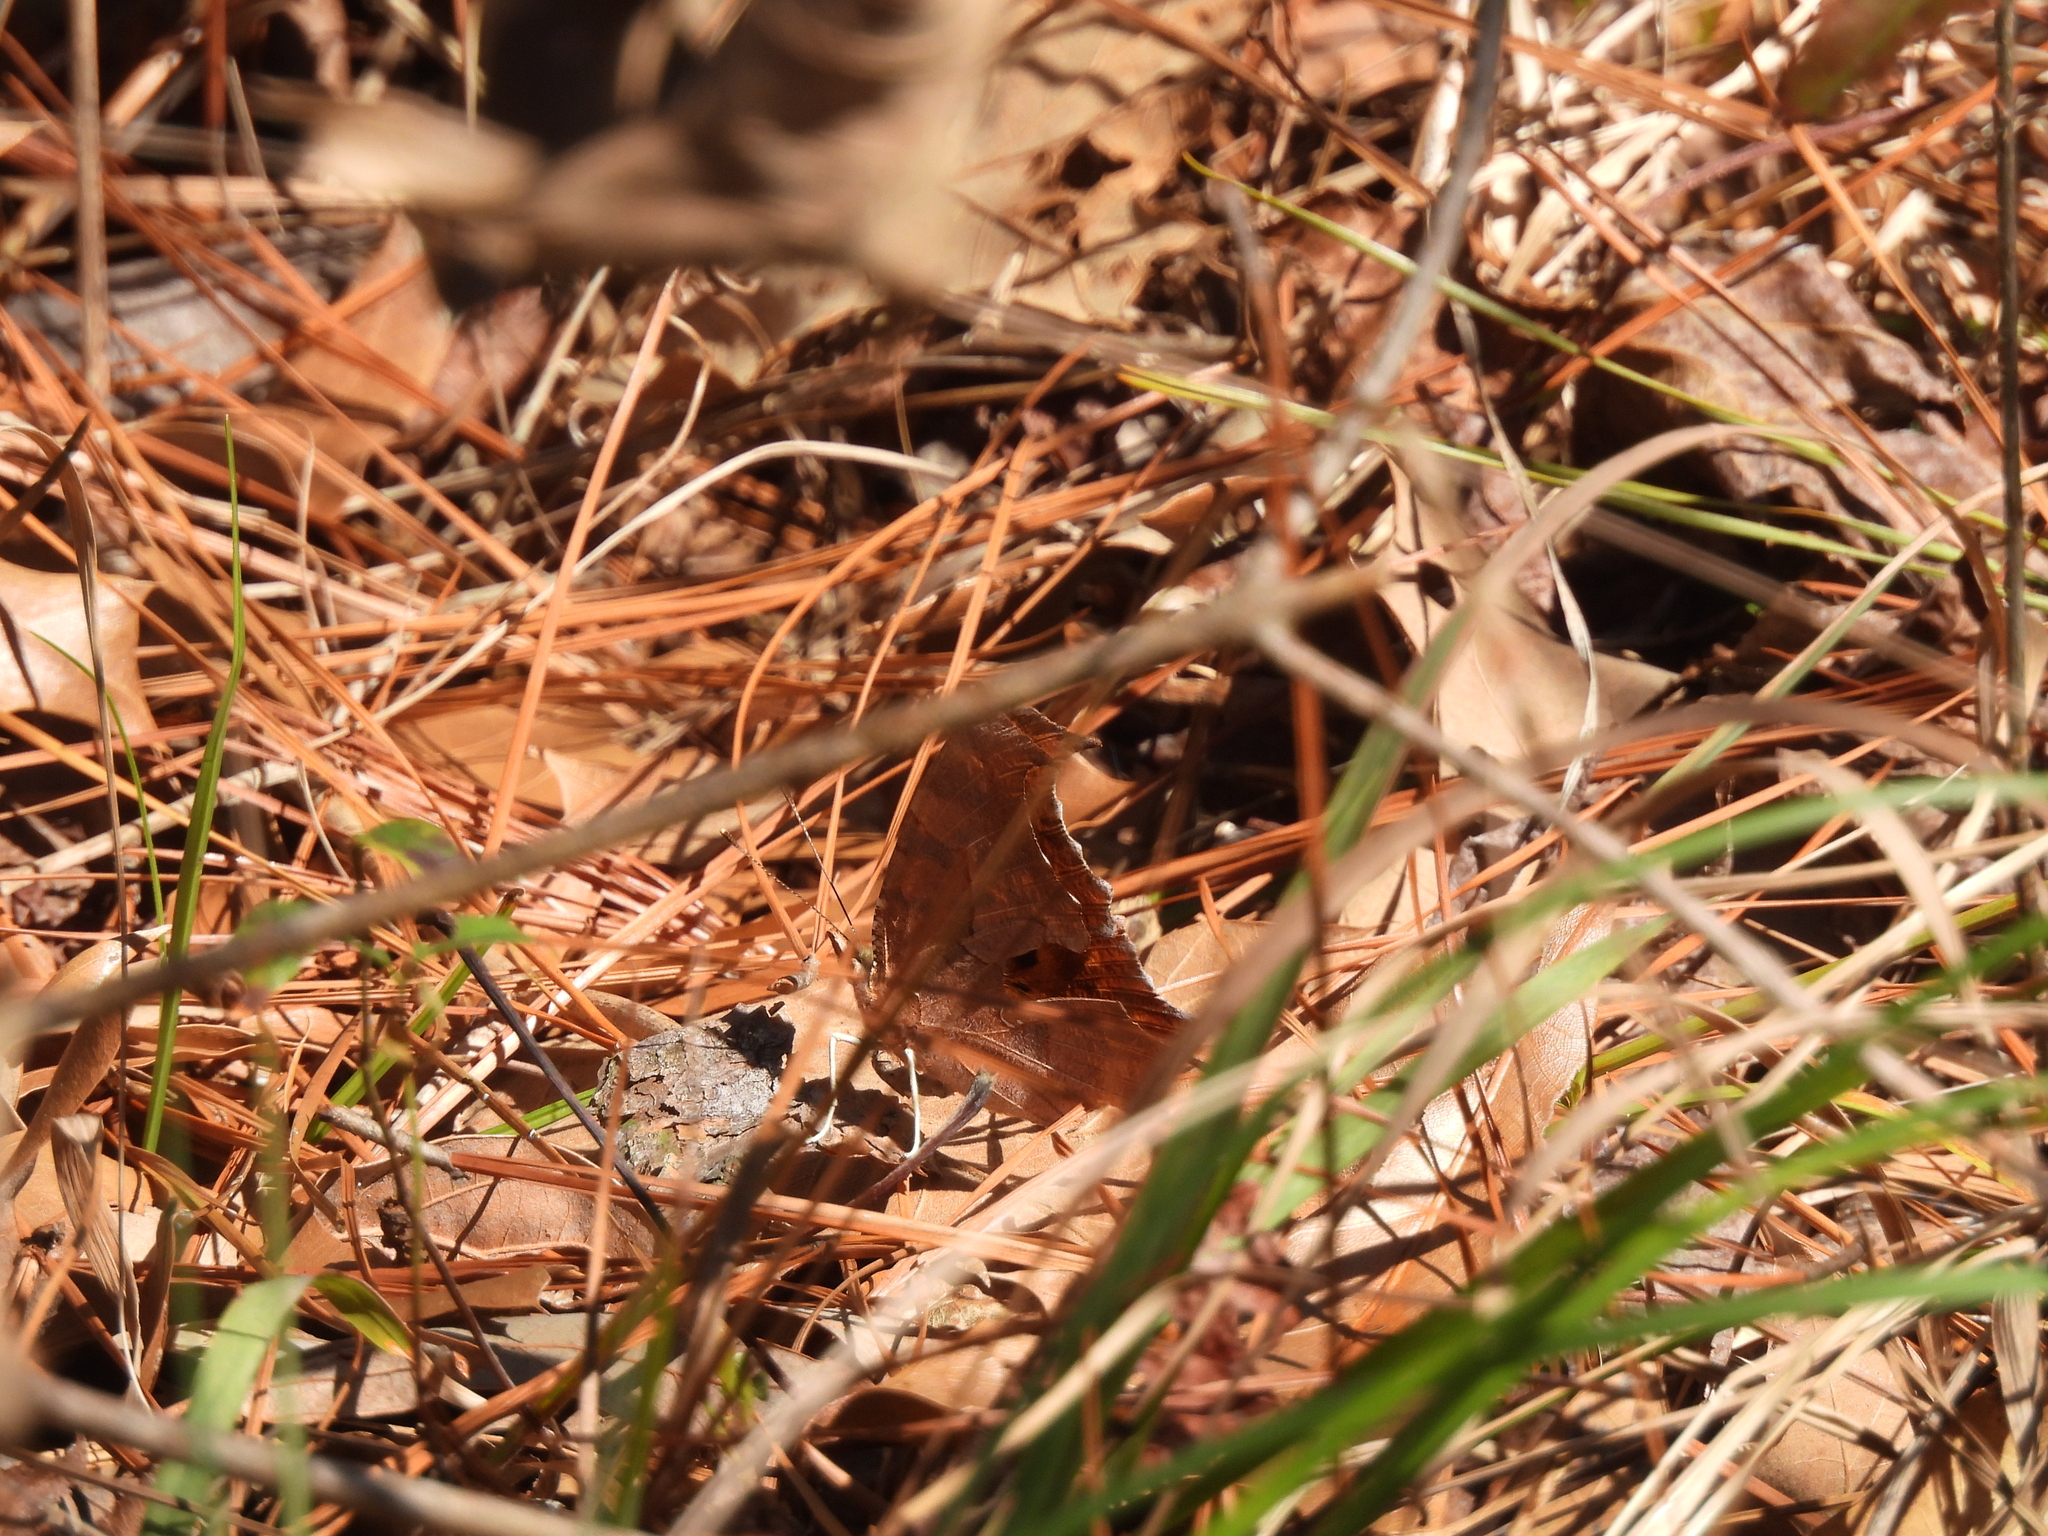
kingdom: Animalia
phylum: Arthropoda
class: Insecta
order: Lepidoptera
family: Nymphalidae
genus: Polygonia
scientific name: Polygonia interrogationis
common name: Question mark
